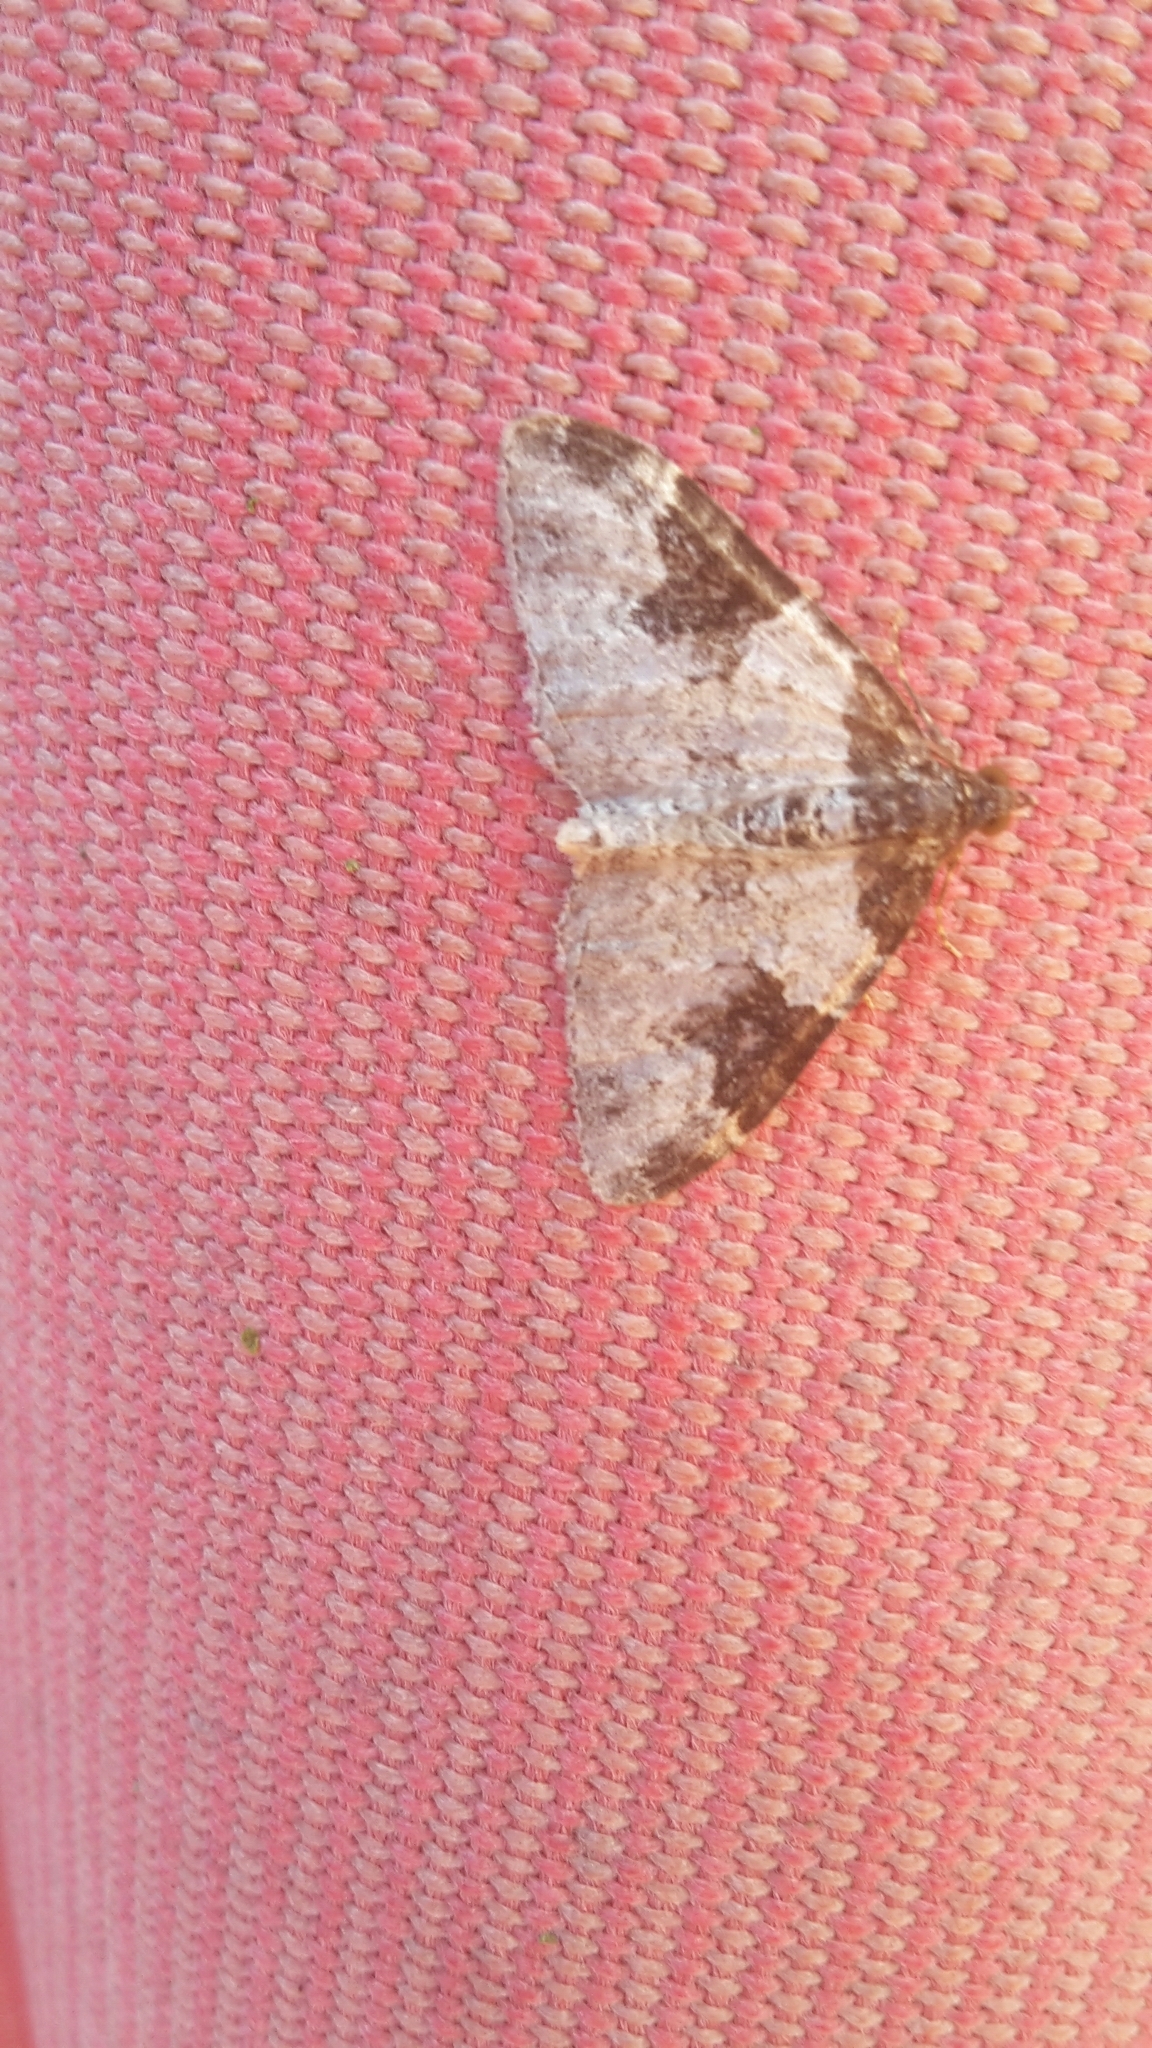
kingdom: Animalia
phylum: Arthropoda
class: Insecta
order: Lepidoptera
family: Geometridae
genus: Xanthorhoe
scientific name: Xanthorhoe fluctuata
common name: Garden carpet
